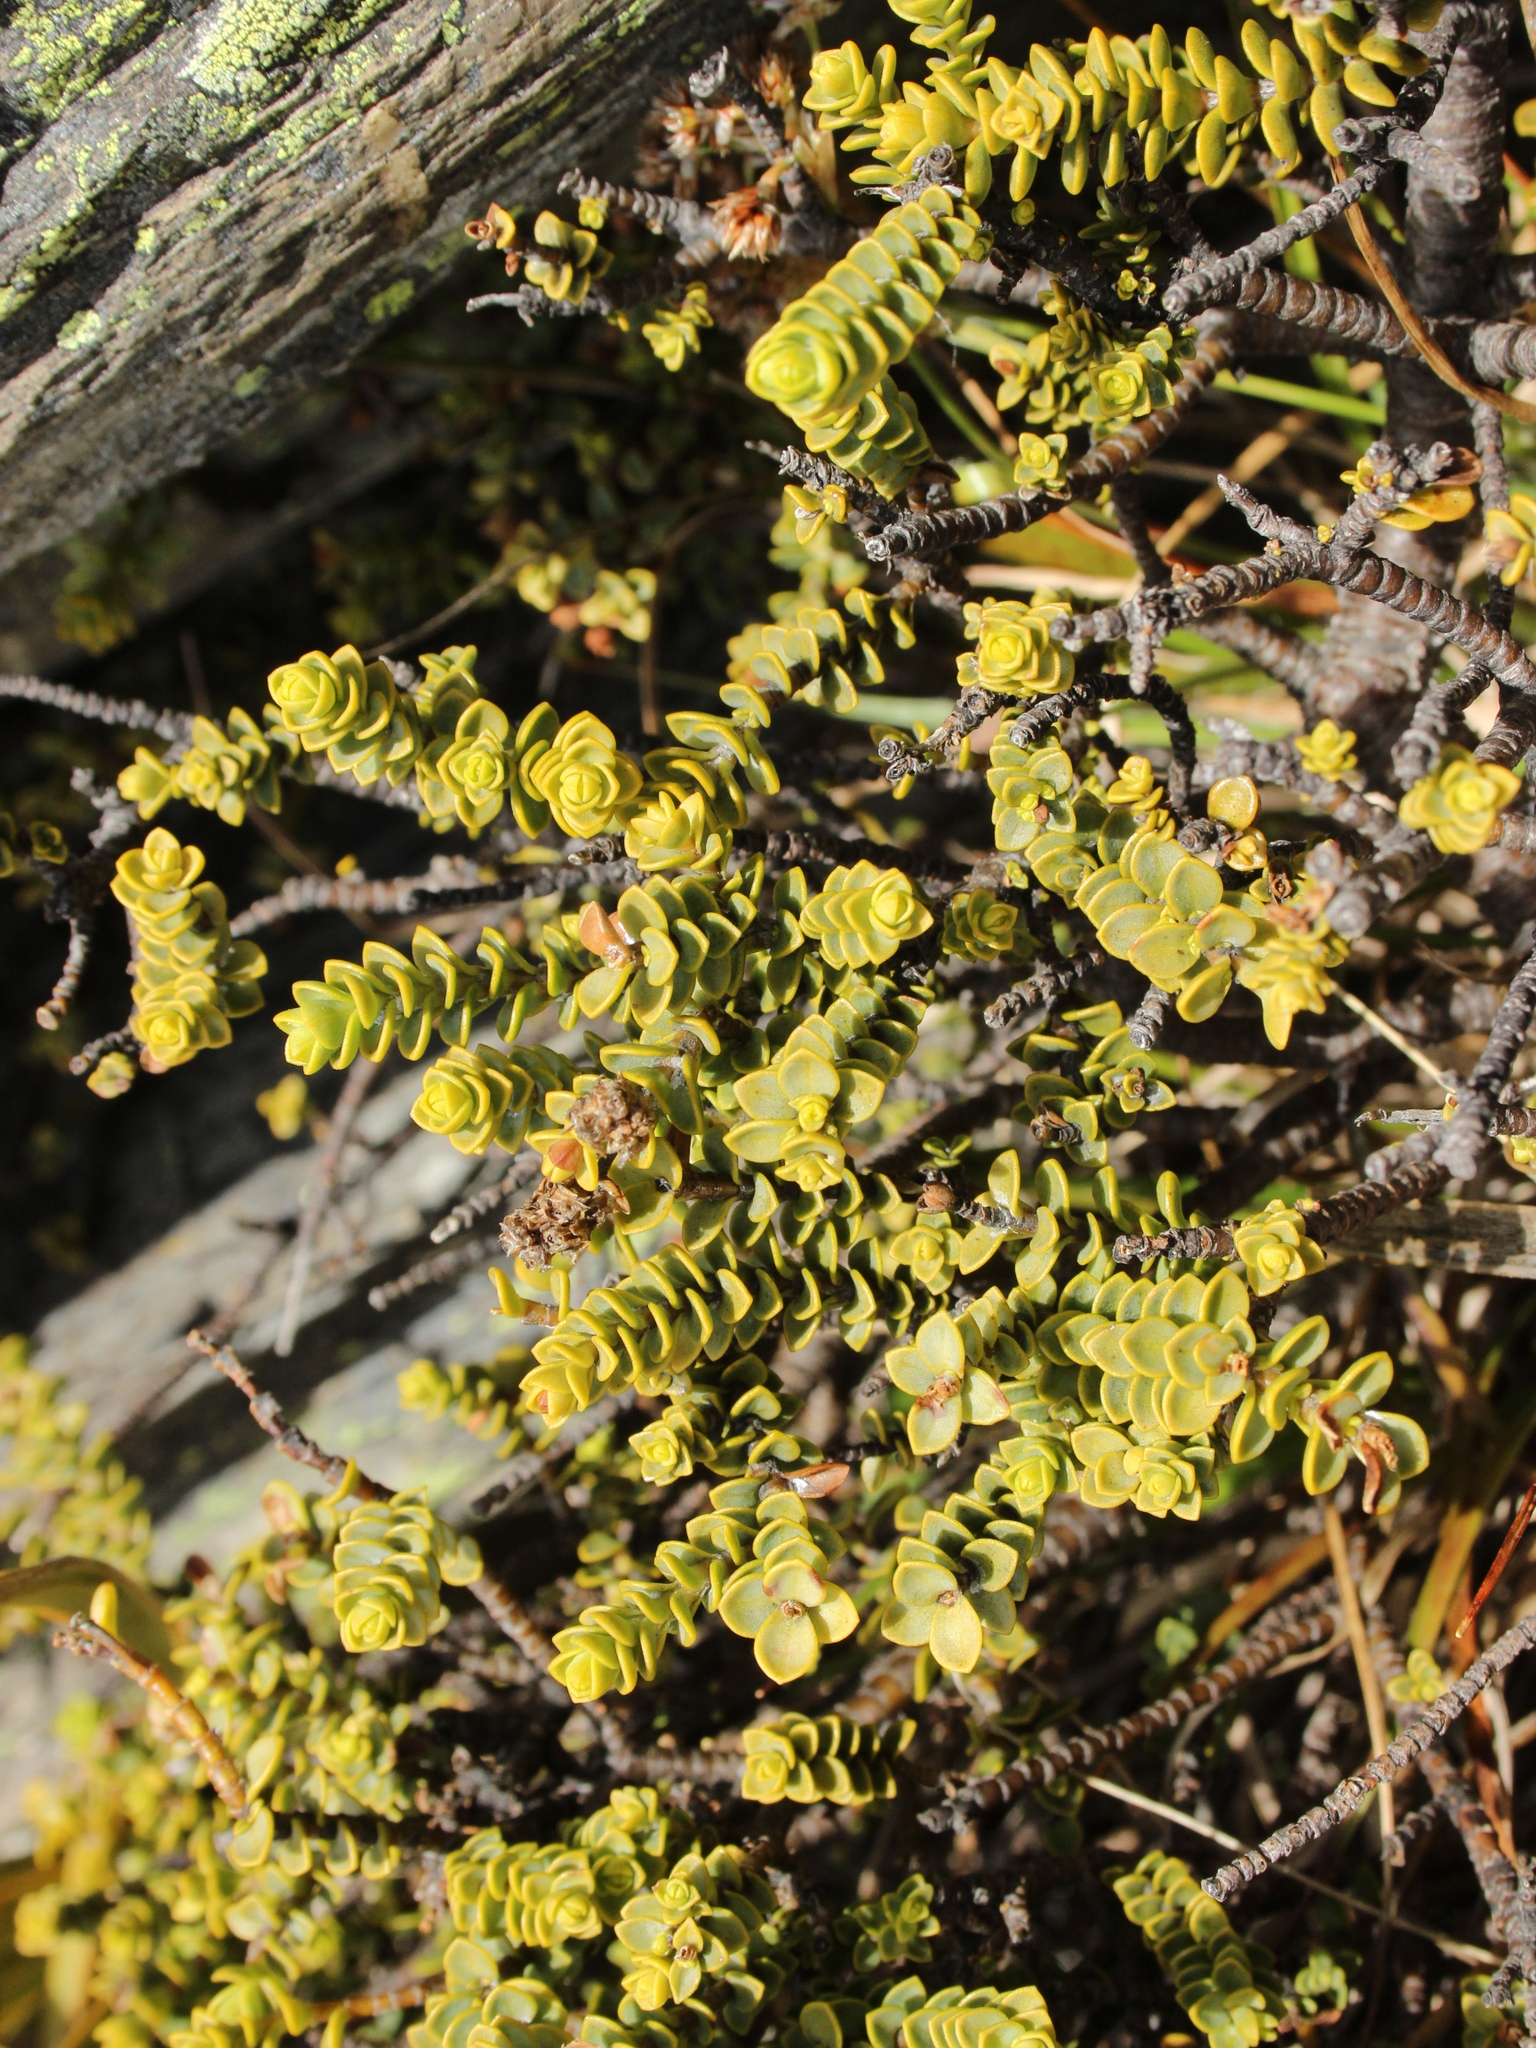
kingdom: Plantae
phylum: Tracheophyta
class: Magnoliopsida
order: Lamiales
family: Plantaginaceae
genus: Veronica
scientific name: Veronica buchananii
